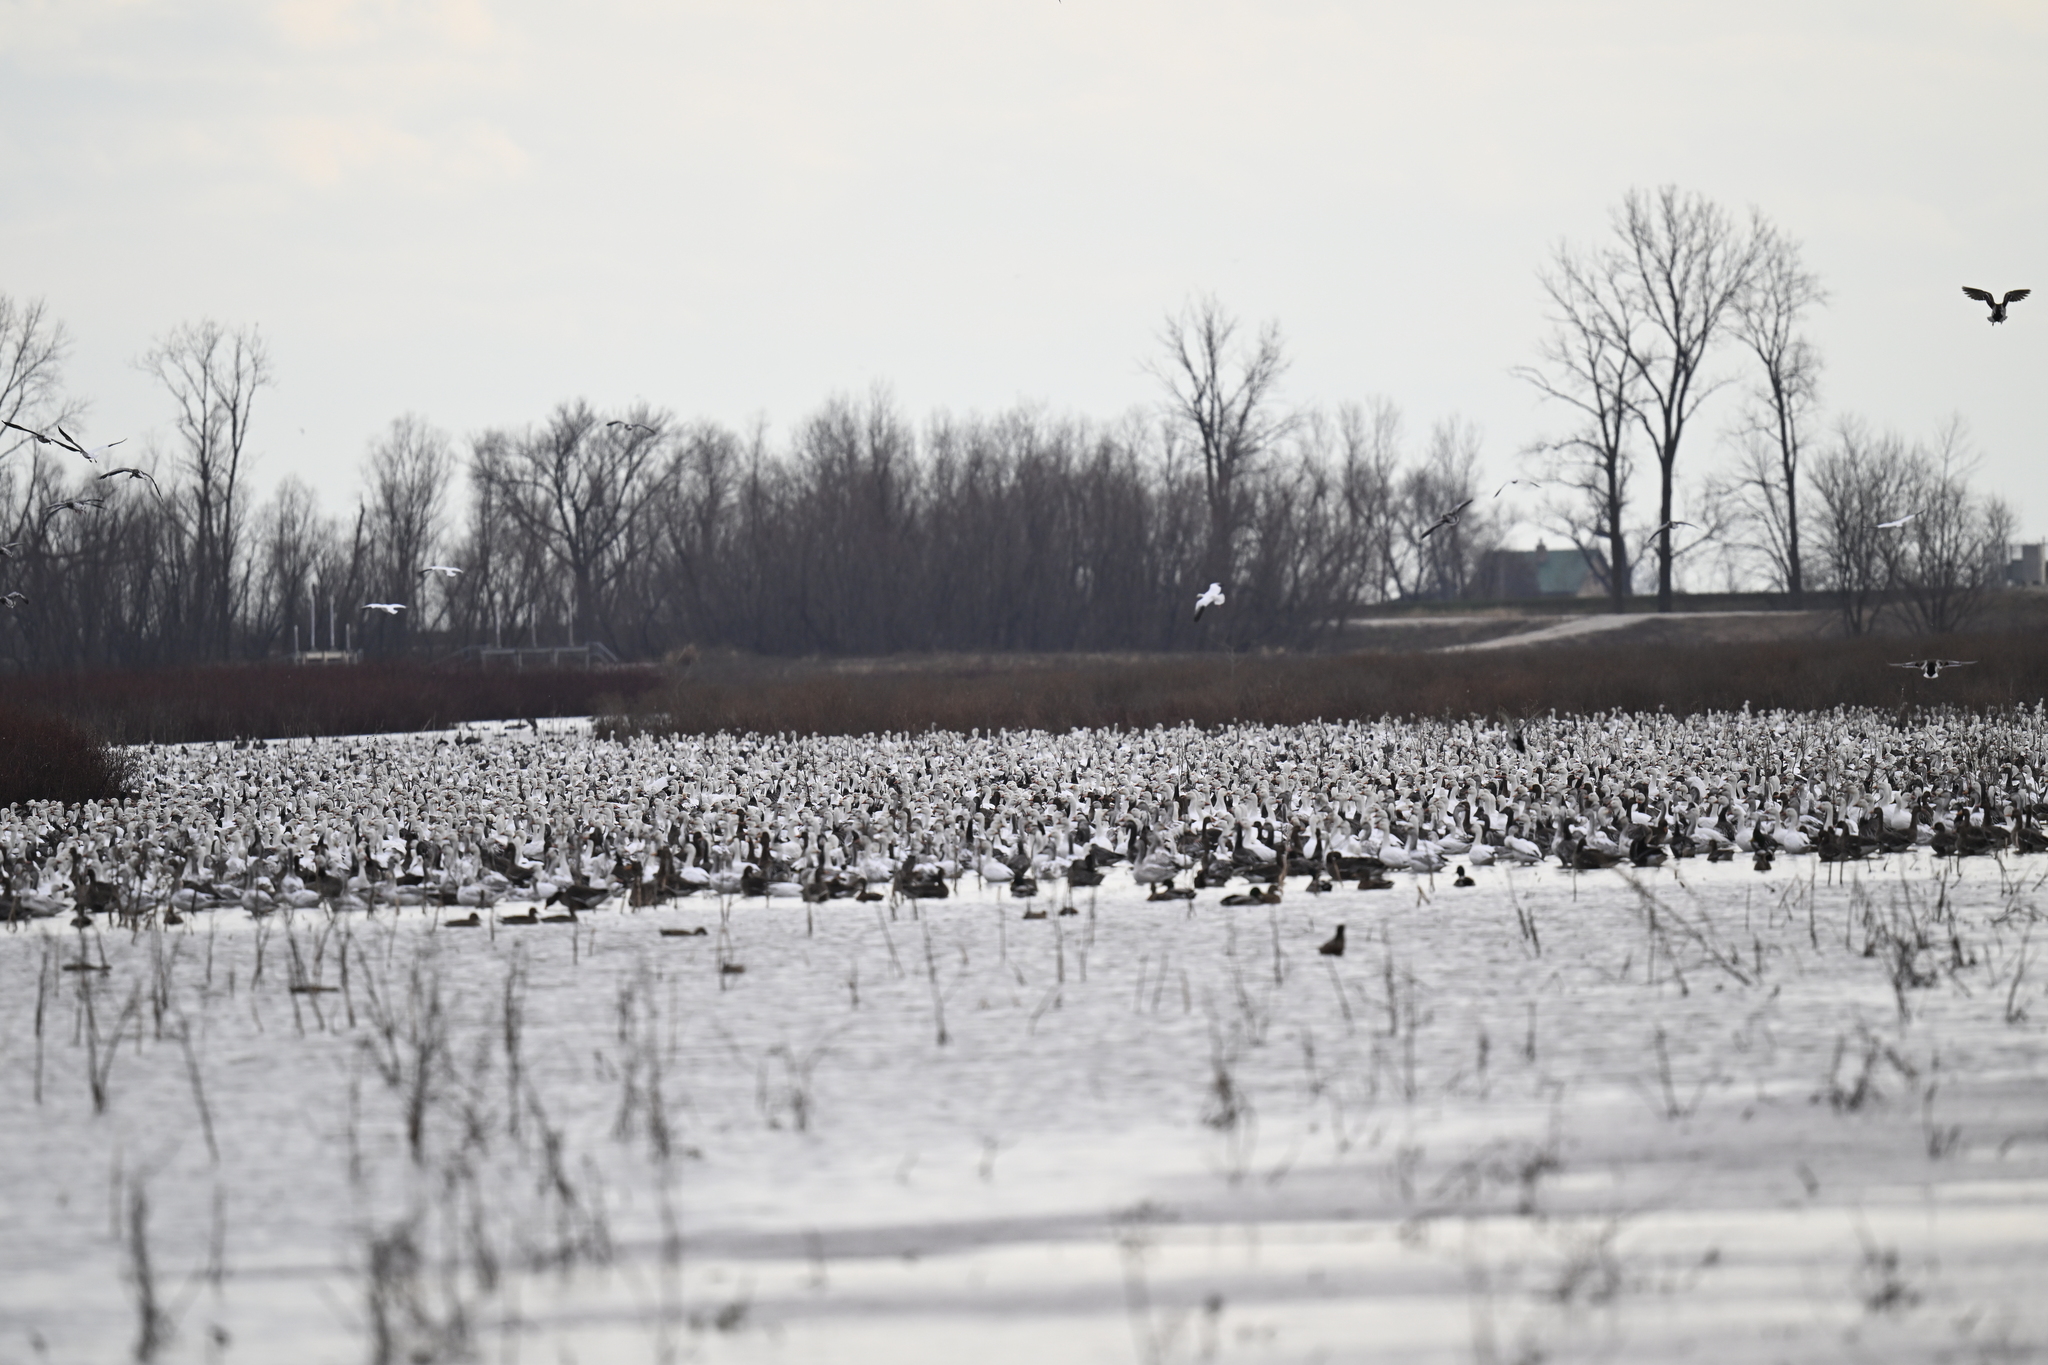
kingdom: Animalia
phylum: Chordata
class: Aves
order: Anseriformes
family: Anatidae
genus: Anser
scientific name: Anser caerulescens
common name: Snow goose
